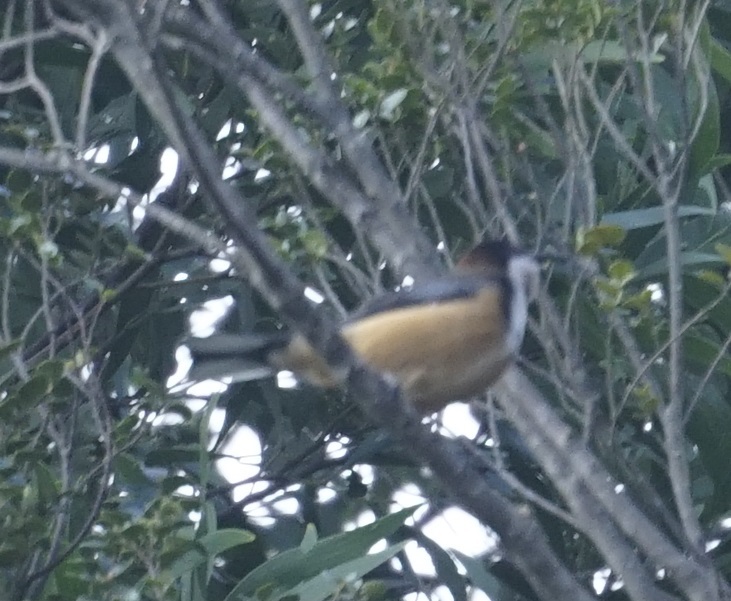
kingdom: Animalia
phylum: Chordata
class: Aves
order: Passeriformes
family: Meliphagidae
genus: Acanthorhynchus
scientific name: Acanthorhynchus tenuirostris
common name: Eastern spinebill
